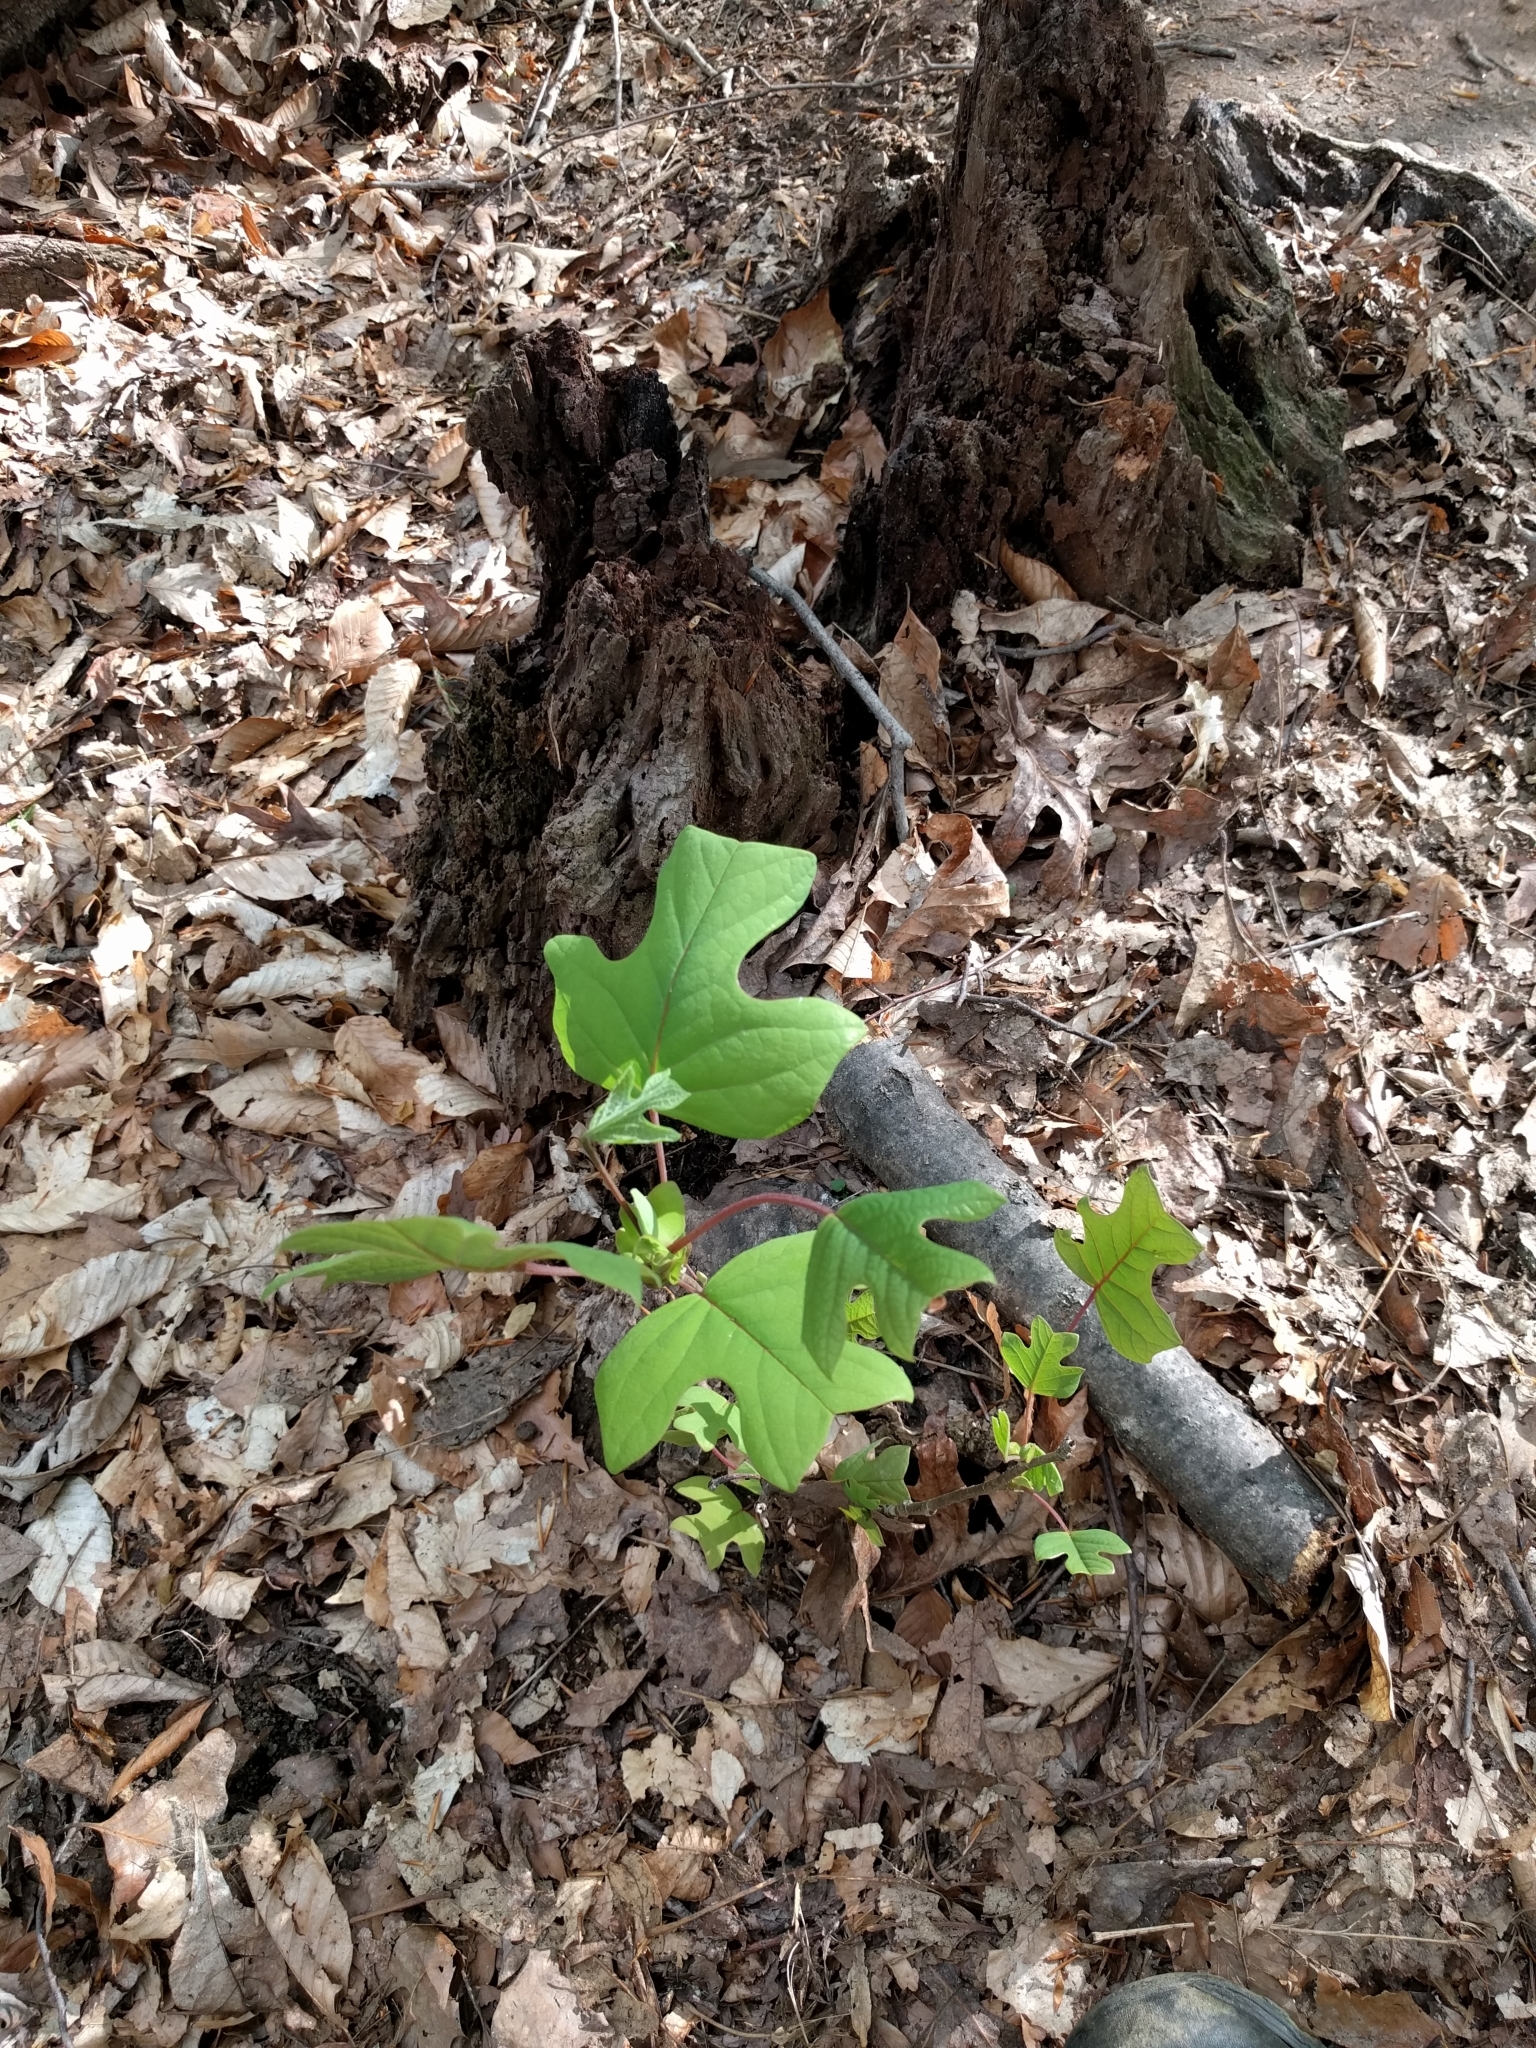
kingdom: Plantae
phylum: Tracheophyta
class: Magnoliopsida
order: Magnoliales
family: Magnoliaceae
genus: Liriodendron
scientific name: Liriodendron tulipifera
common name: Tulip tree
